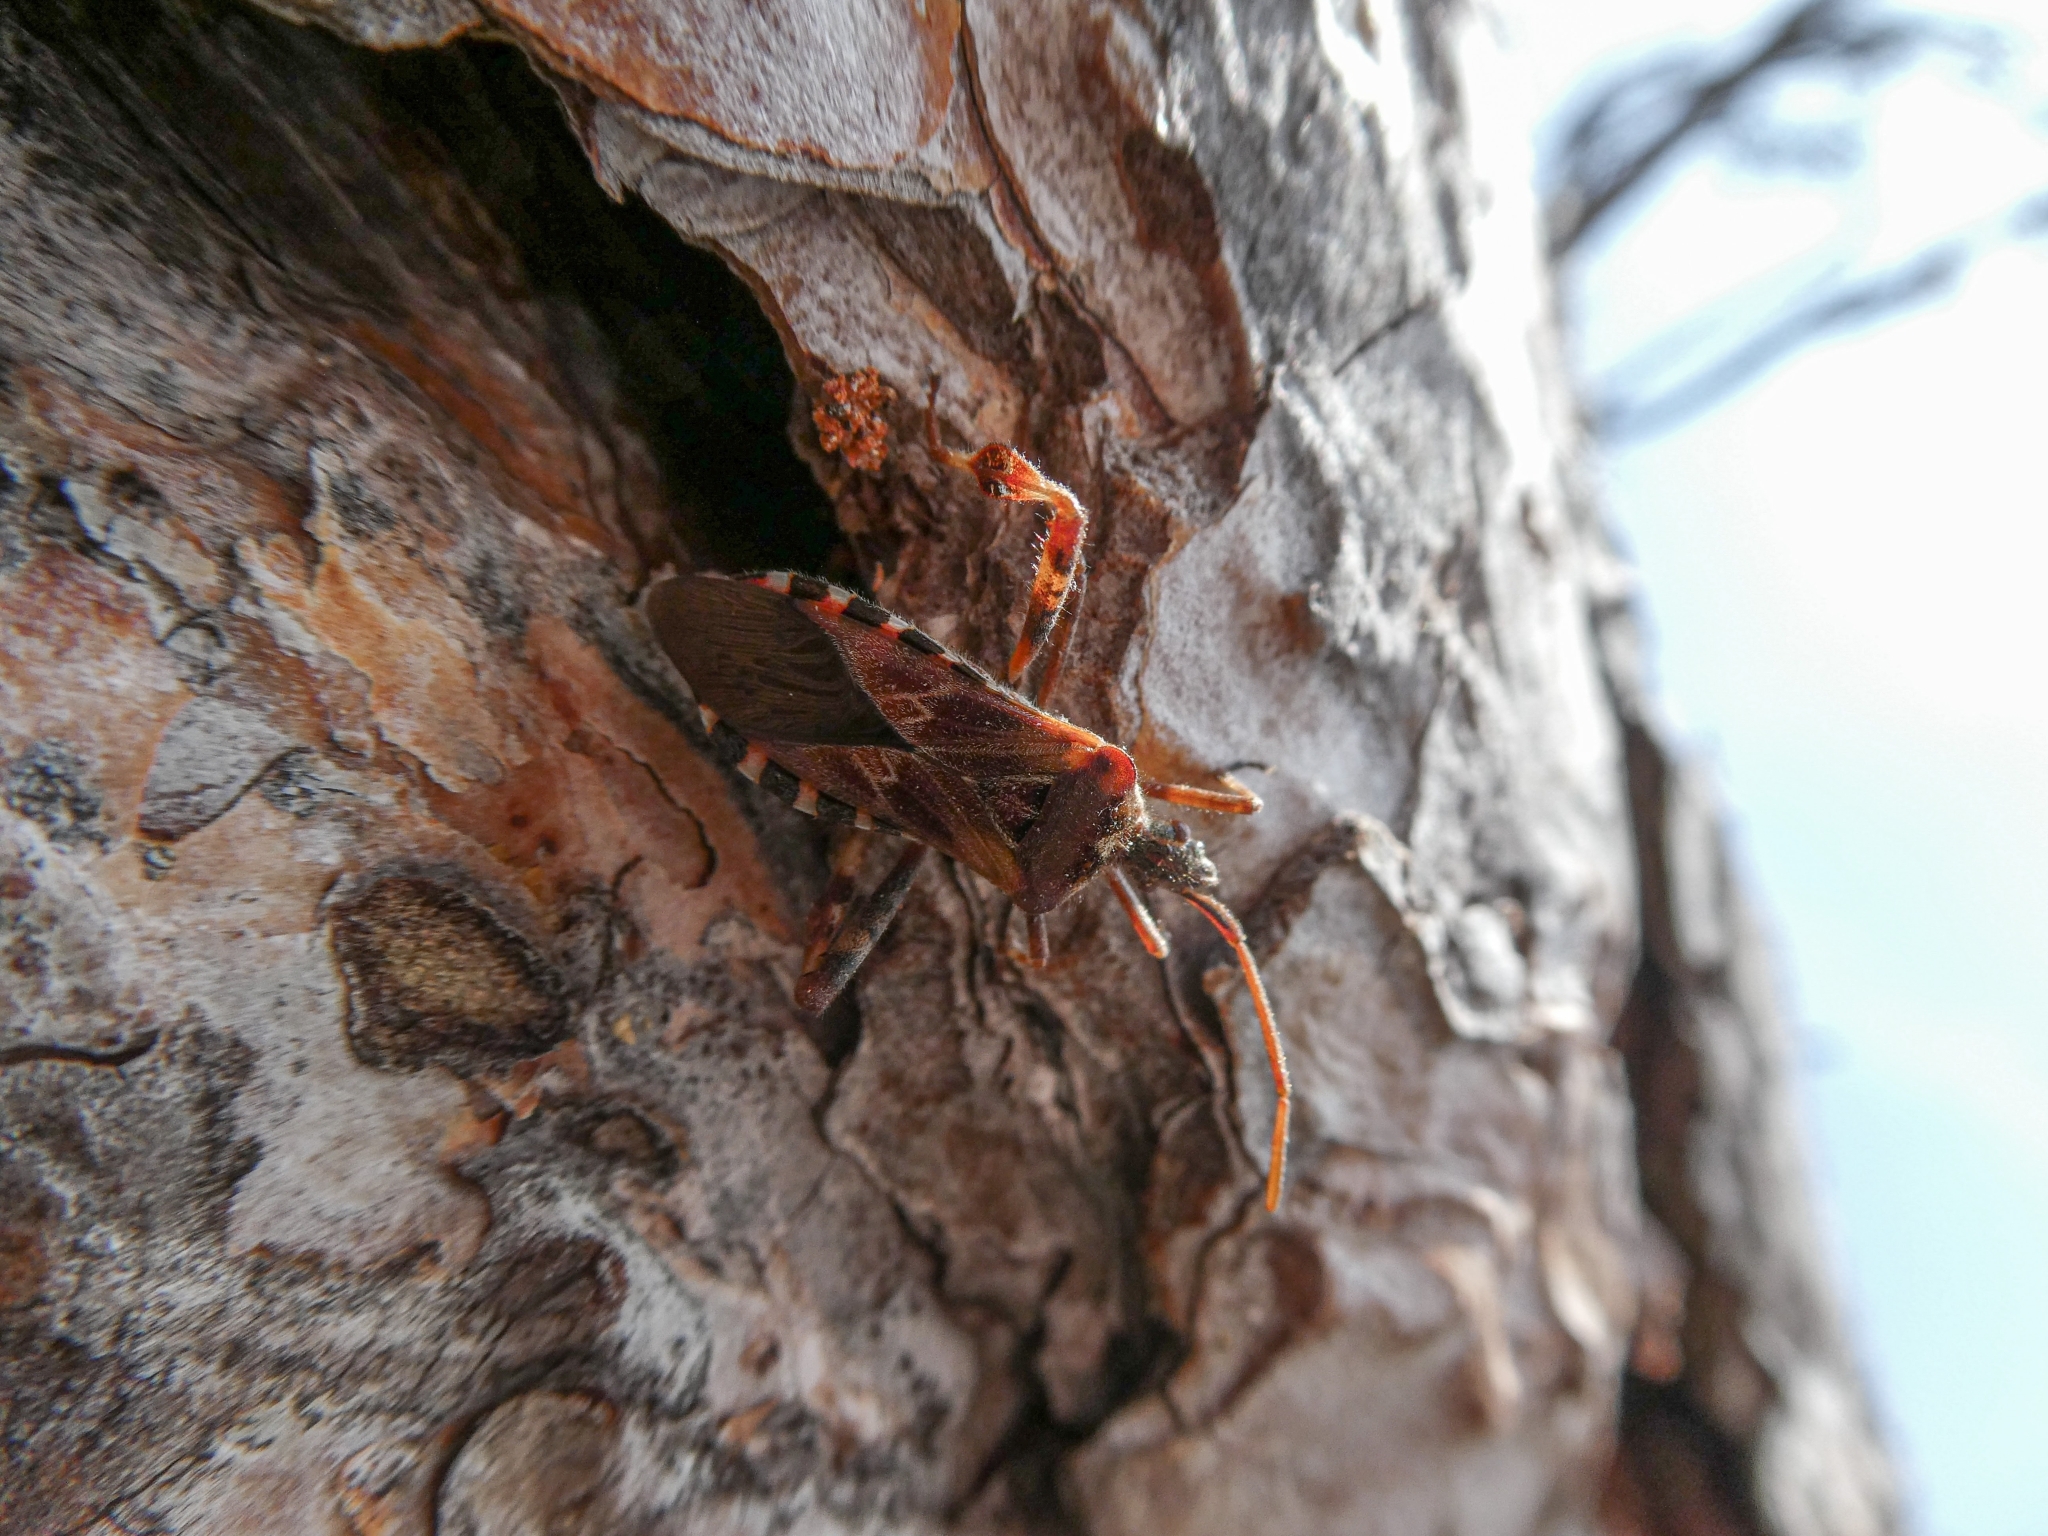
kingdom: Animalia
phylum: Arthropoda
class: Insecta
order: Hemiptera
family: Coreidae
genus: Leptoglossus
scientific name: Leptoglossus occidentalis
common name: Western conifer-seed bug
